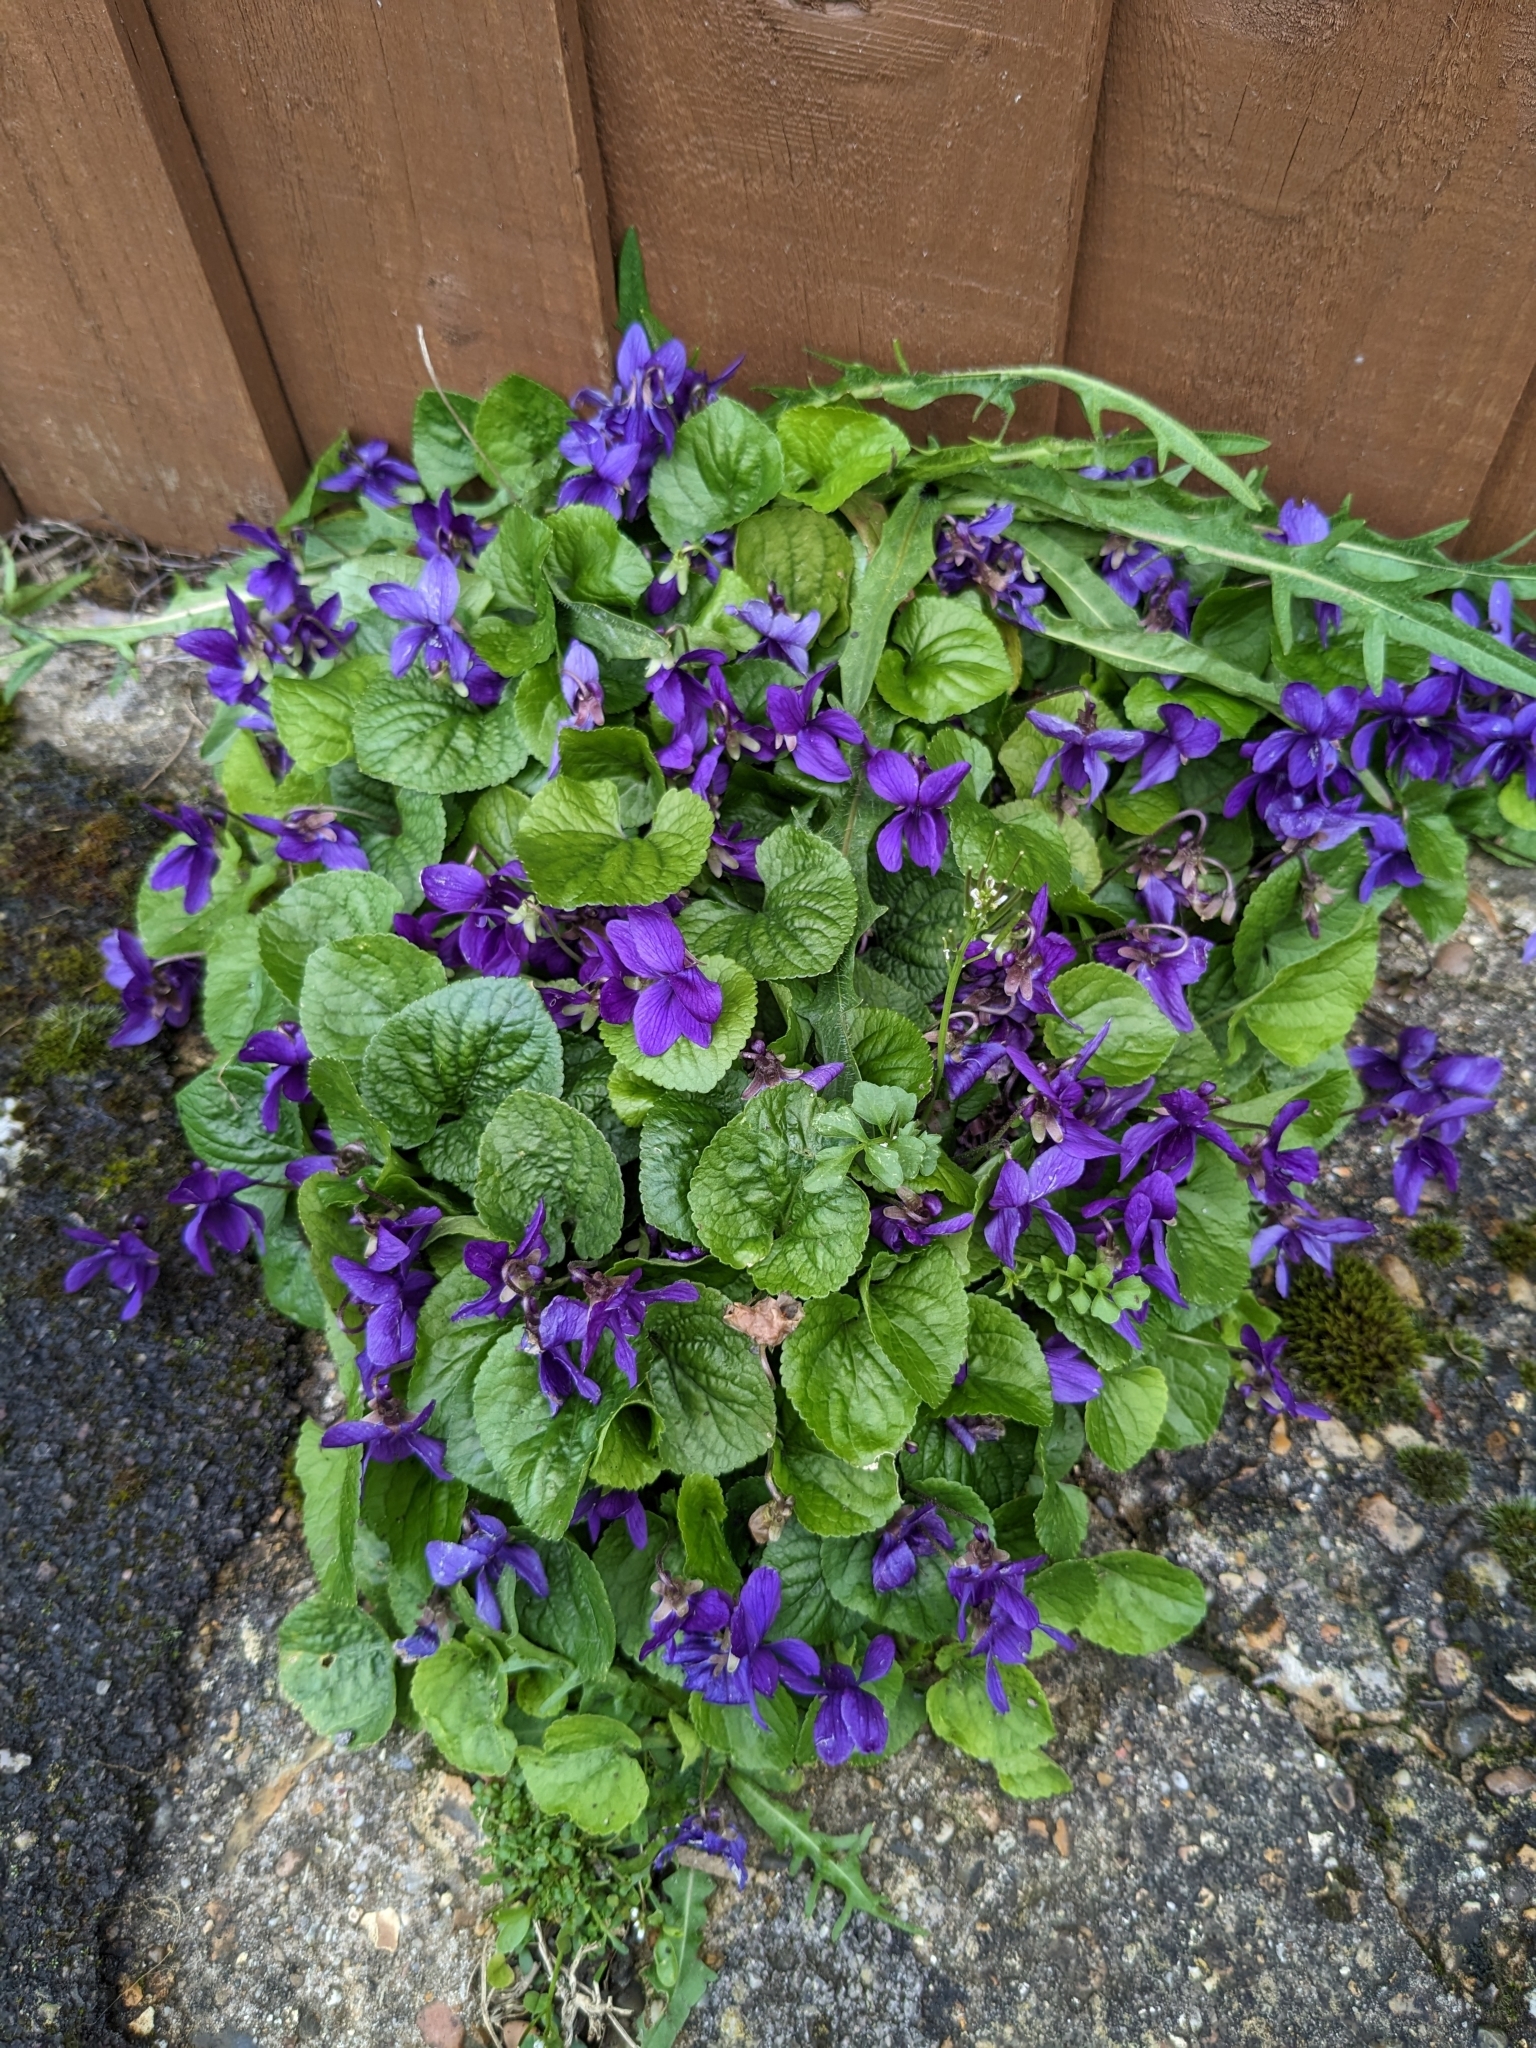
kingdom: Plantae
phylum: Tracheophyta
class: Magnoliopsida
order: Malpighiales
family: Violaceae
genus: Viola
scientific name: Viola odorata
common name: Sweet violet
